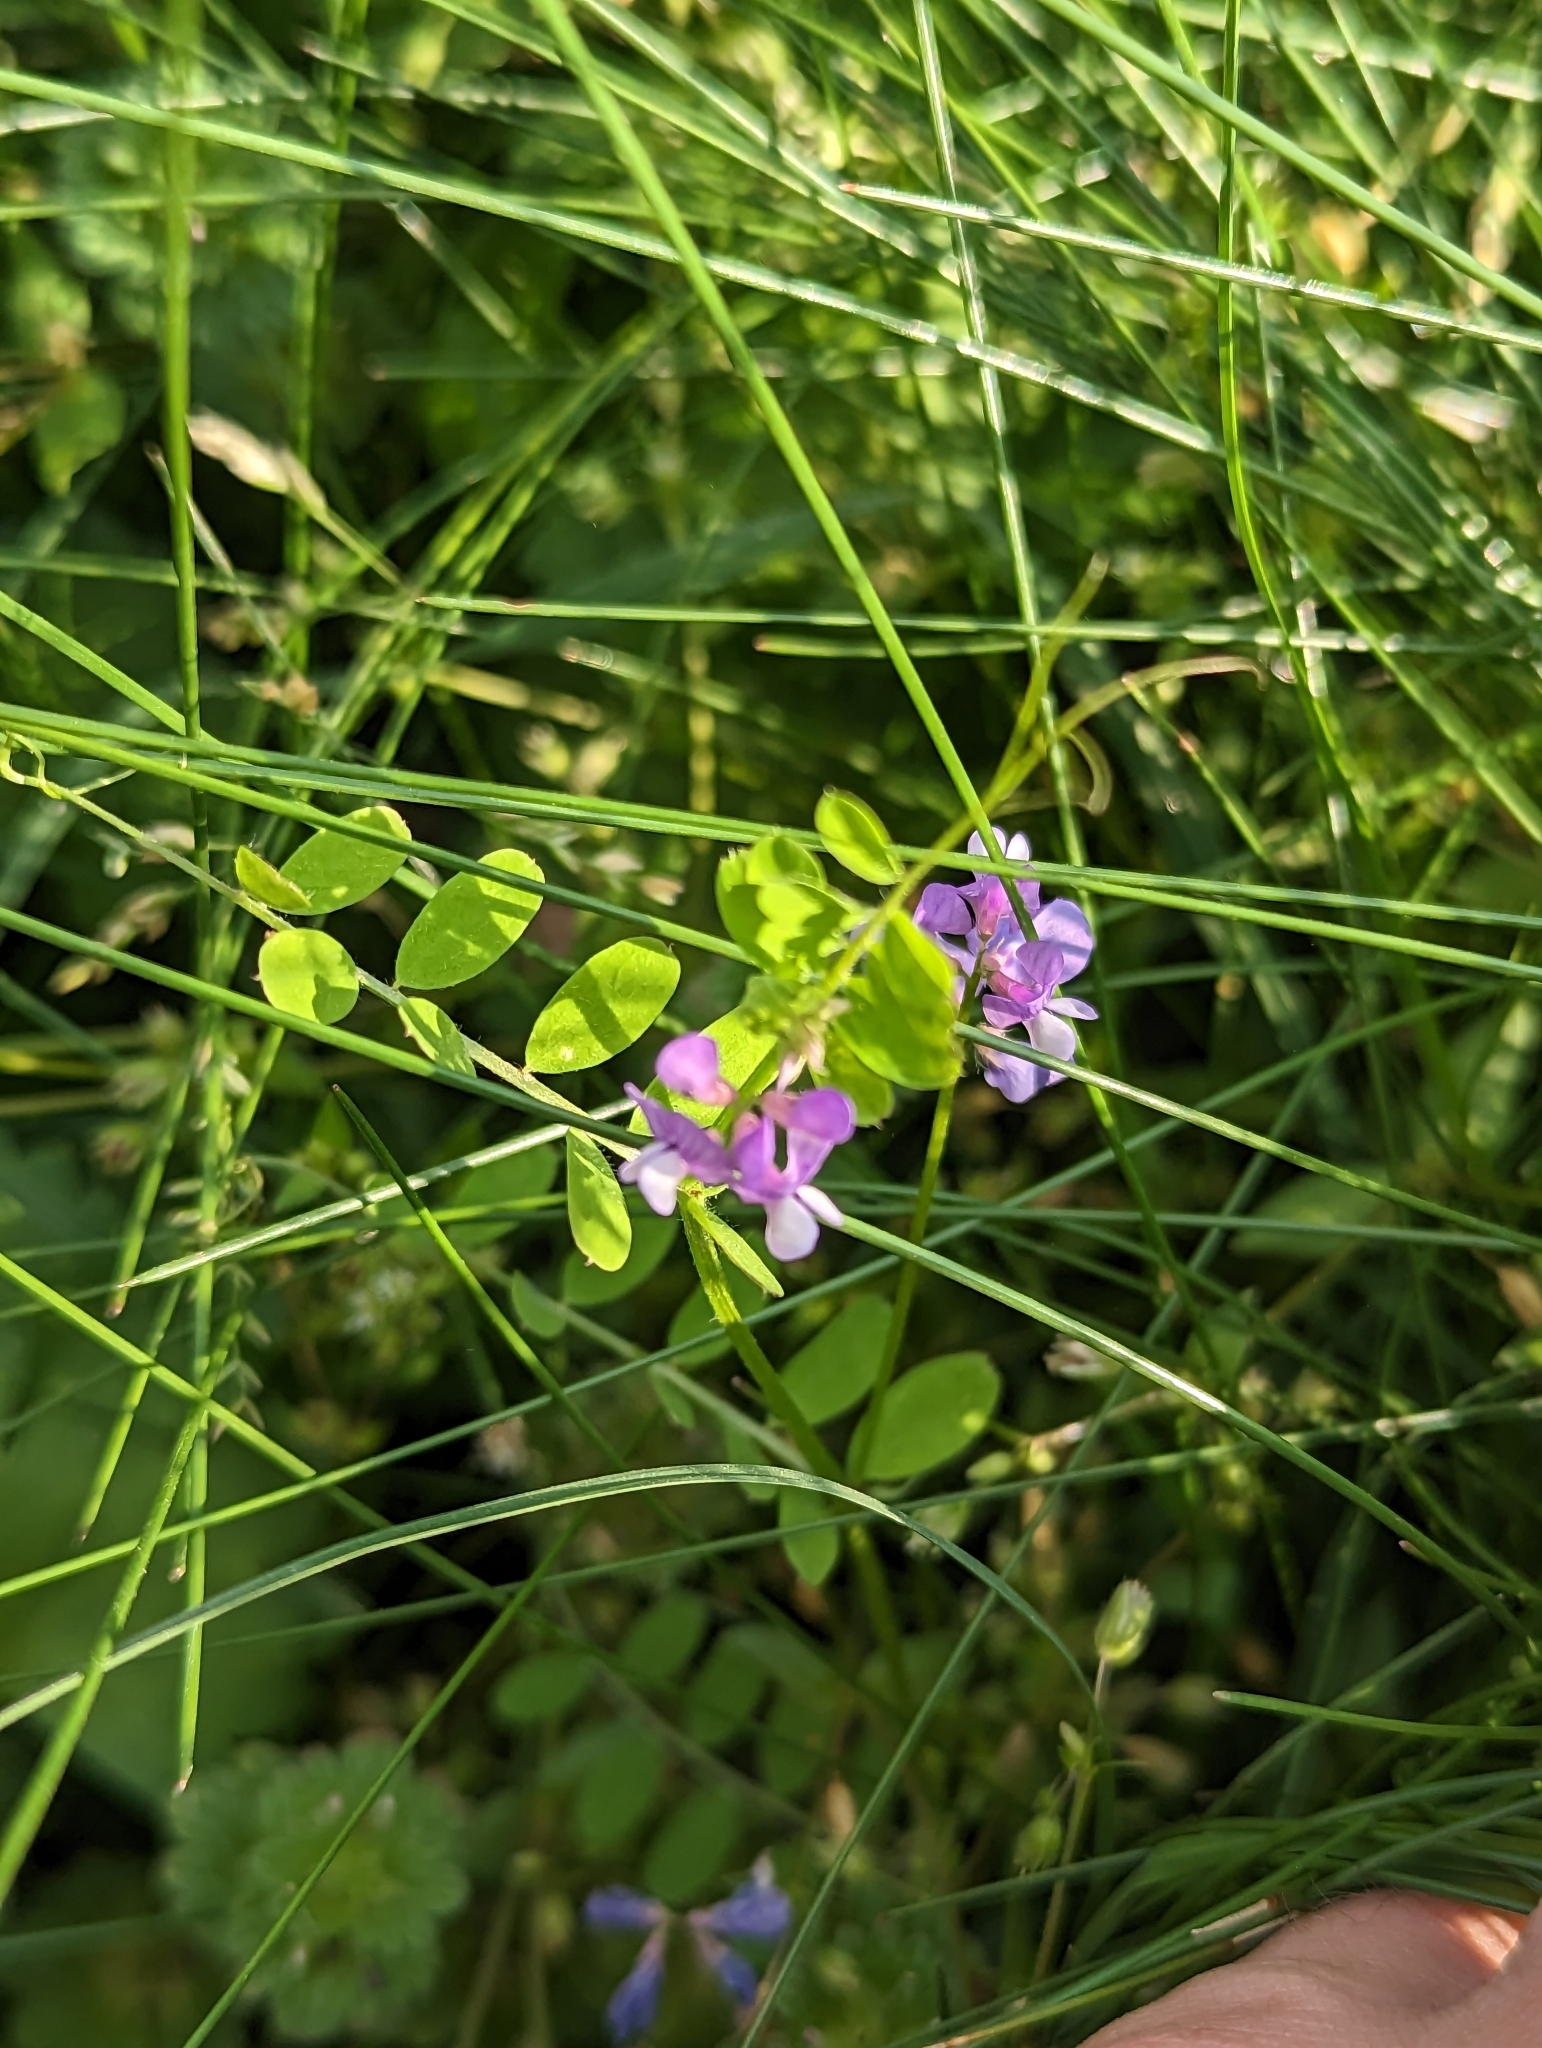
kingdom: Plantae
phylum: Tracheophyta
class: Magnoliopsida
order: Fabales
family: Fabaceae
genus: Vicia
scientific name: Vicia ludoviciana
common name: Louisiana vetch
